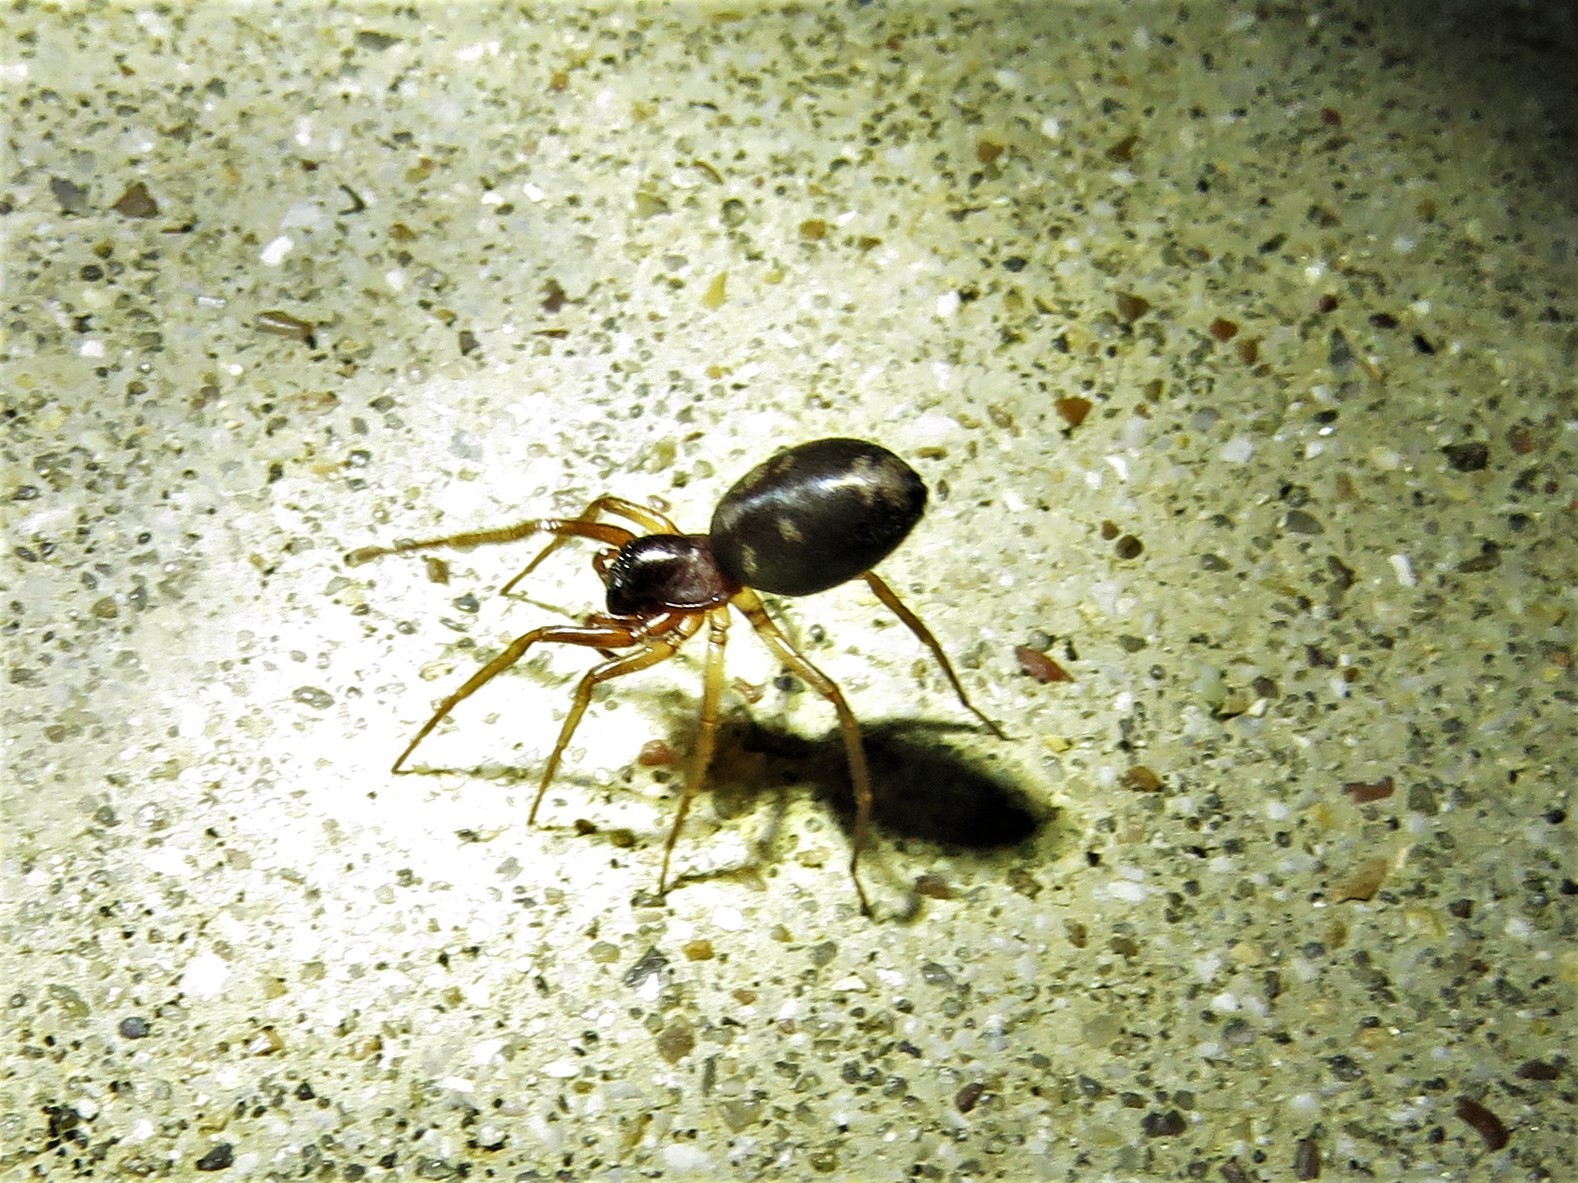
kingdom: Animalia
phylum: Arthropoda
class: Arachnida
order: Araneae
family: Corinnidae
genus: Falconina
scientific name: Falconina gracilis
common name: Antmimic spider
